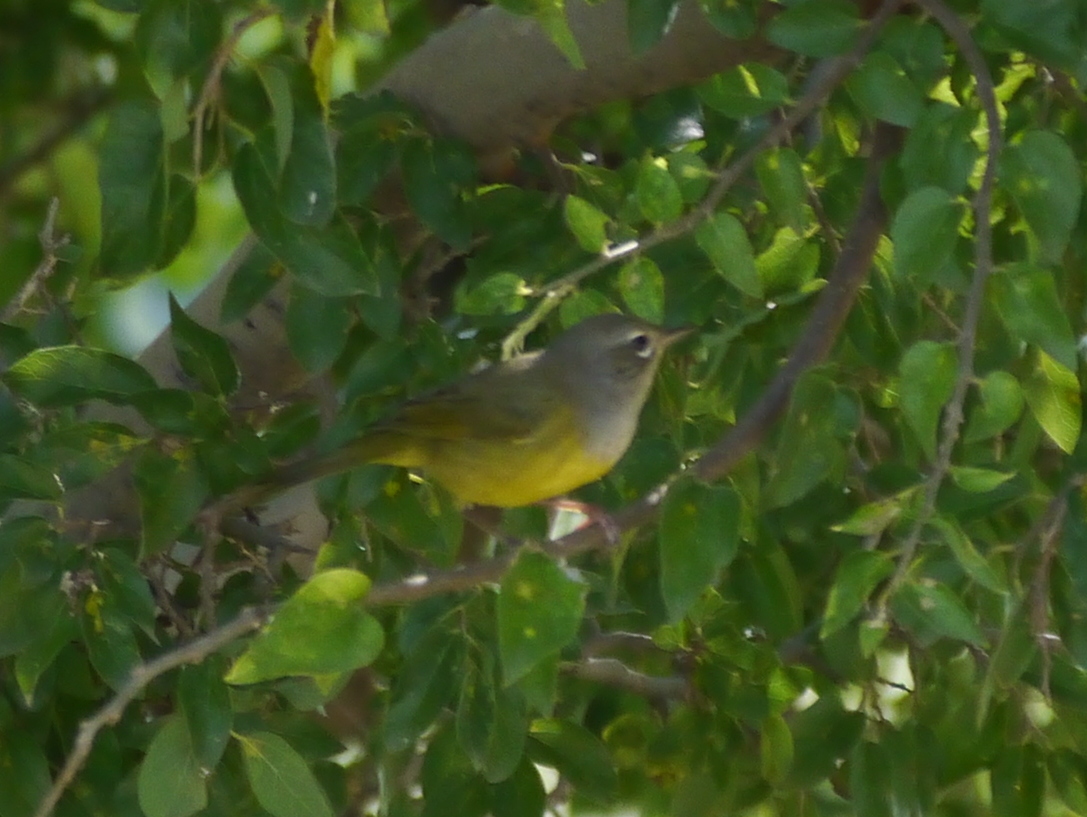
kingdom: Animalia
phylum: Chordata
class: Aves
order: Passeriformes
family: Parulidae
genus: Geothlypis
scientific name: Geothlypis tolmiei
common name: Macgillivray's warbler
